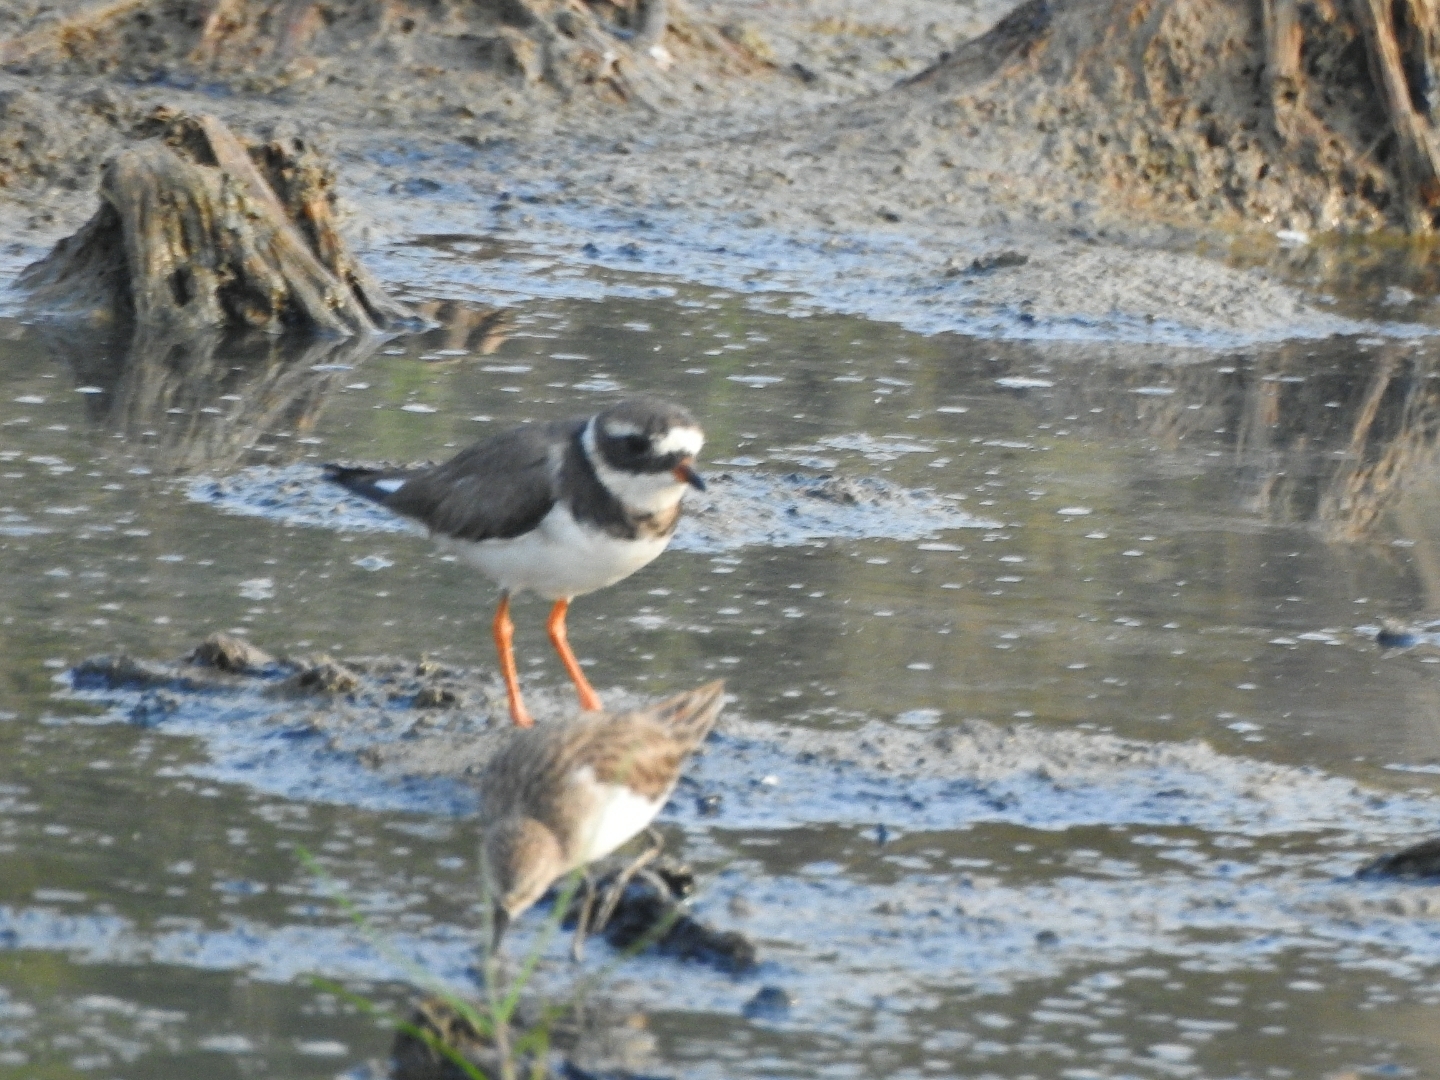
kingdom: Animalia
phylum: Chordata
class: Aves
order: Charadriiformes
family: Charadriidae
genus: Charadrius
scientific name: Charadrius hiaticula
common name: Common ringed plover
